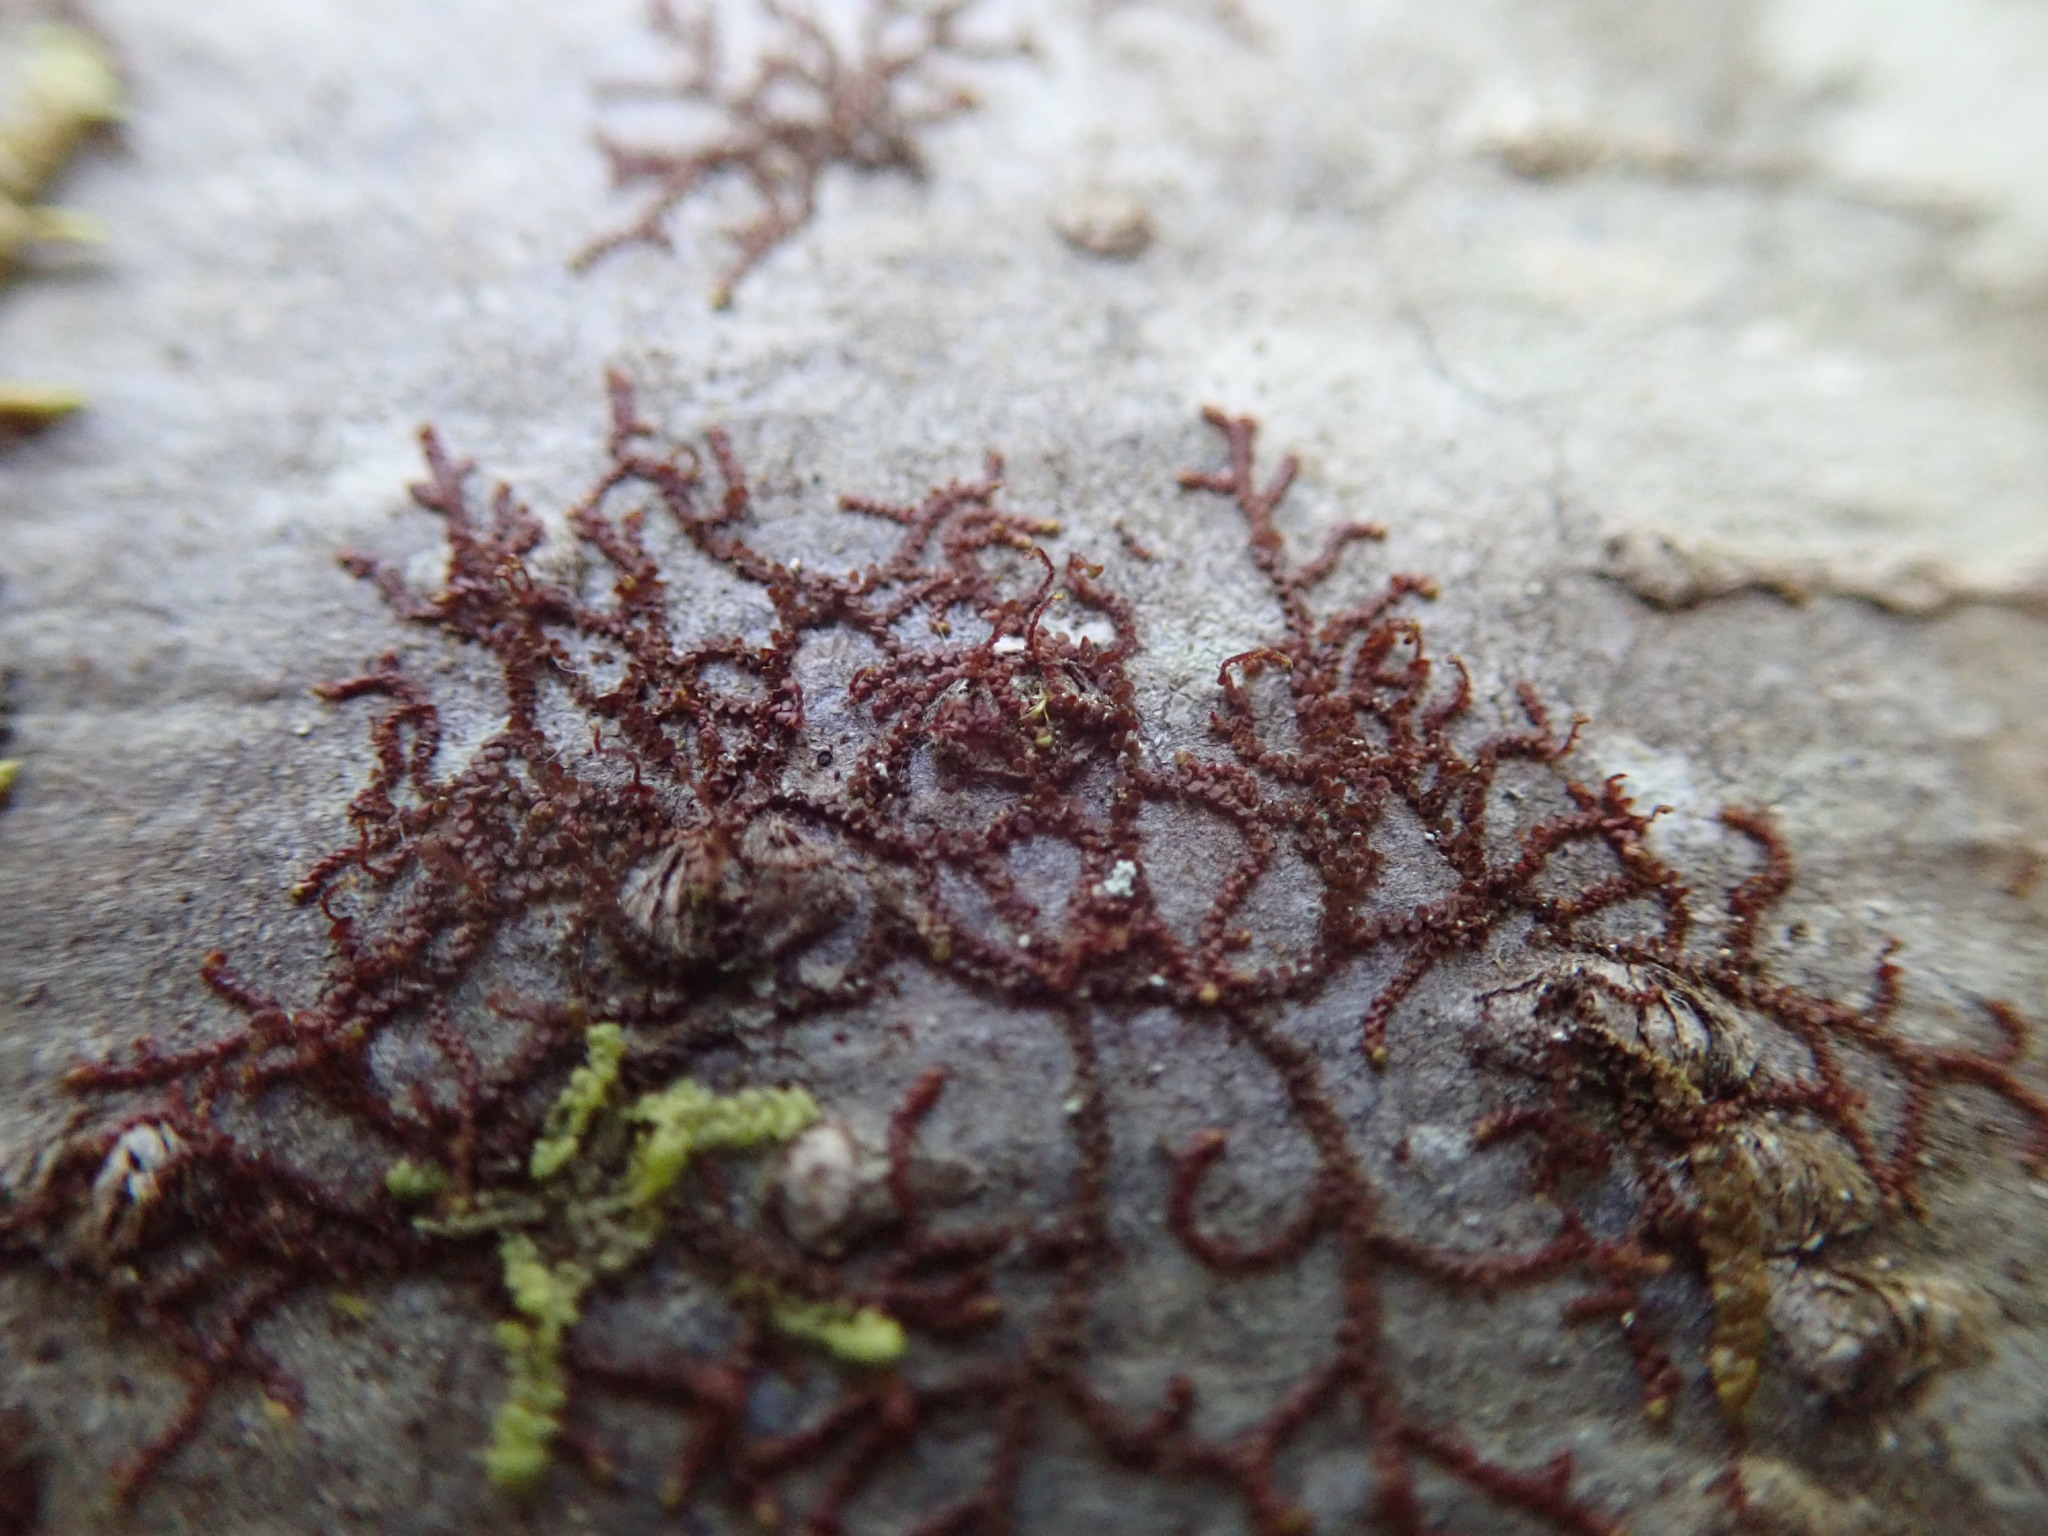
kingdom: Plantae
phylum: Marchantiophyta
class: Jungermanniopsida
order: Porellales
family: Frullaniaceae
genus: Frullania
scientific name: Frullania nisquallensis
